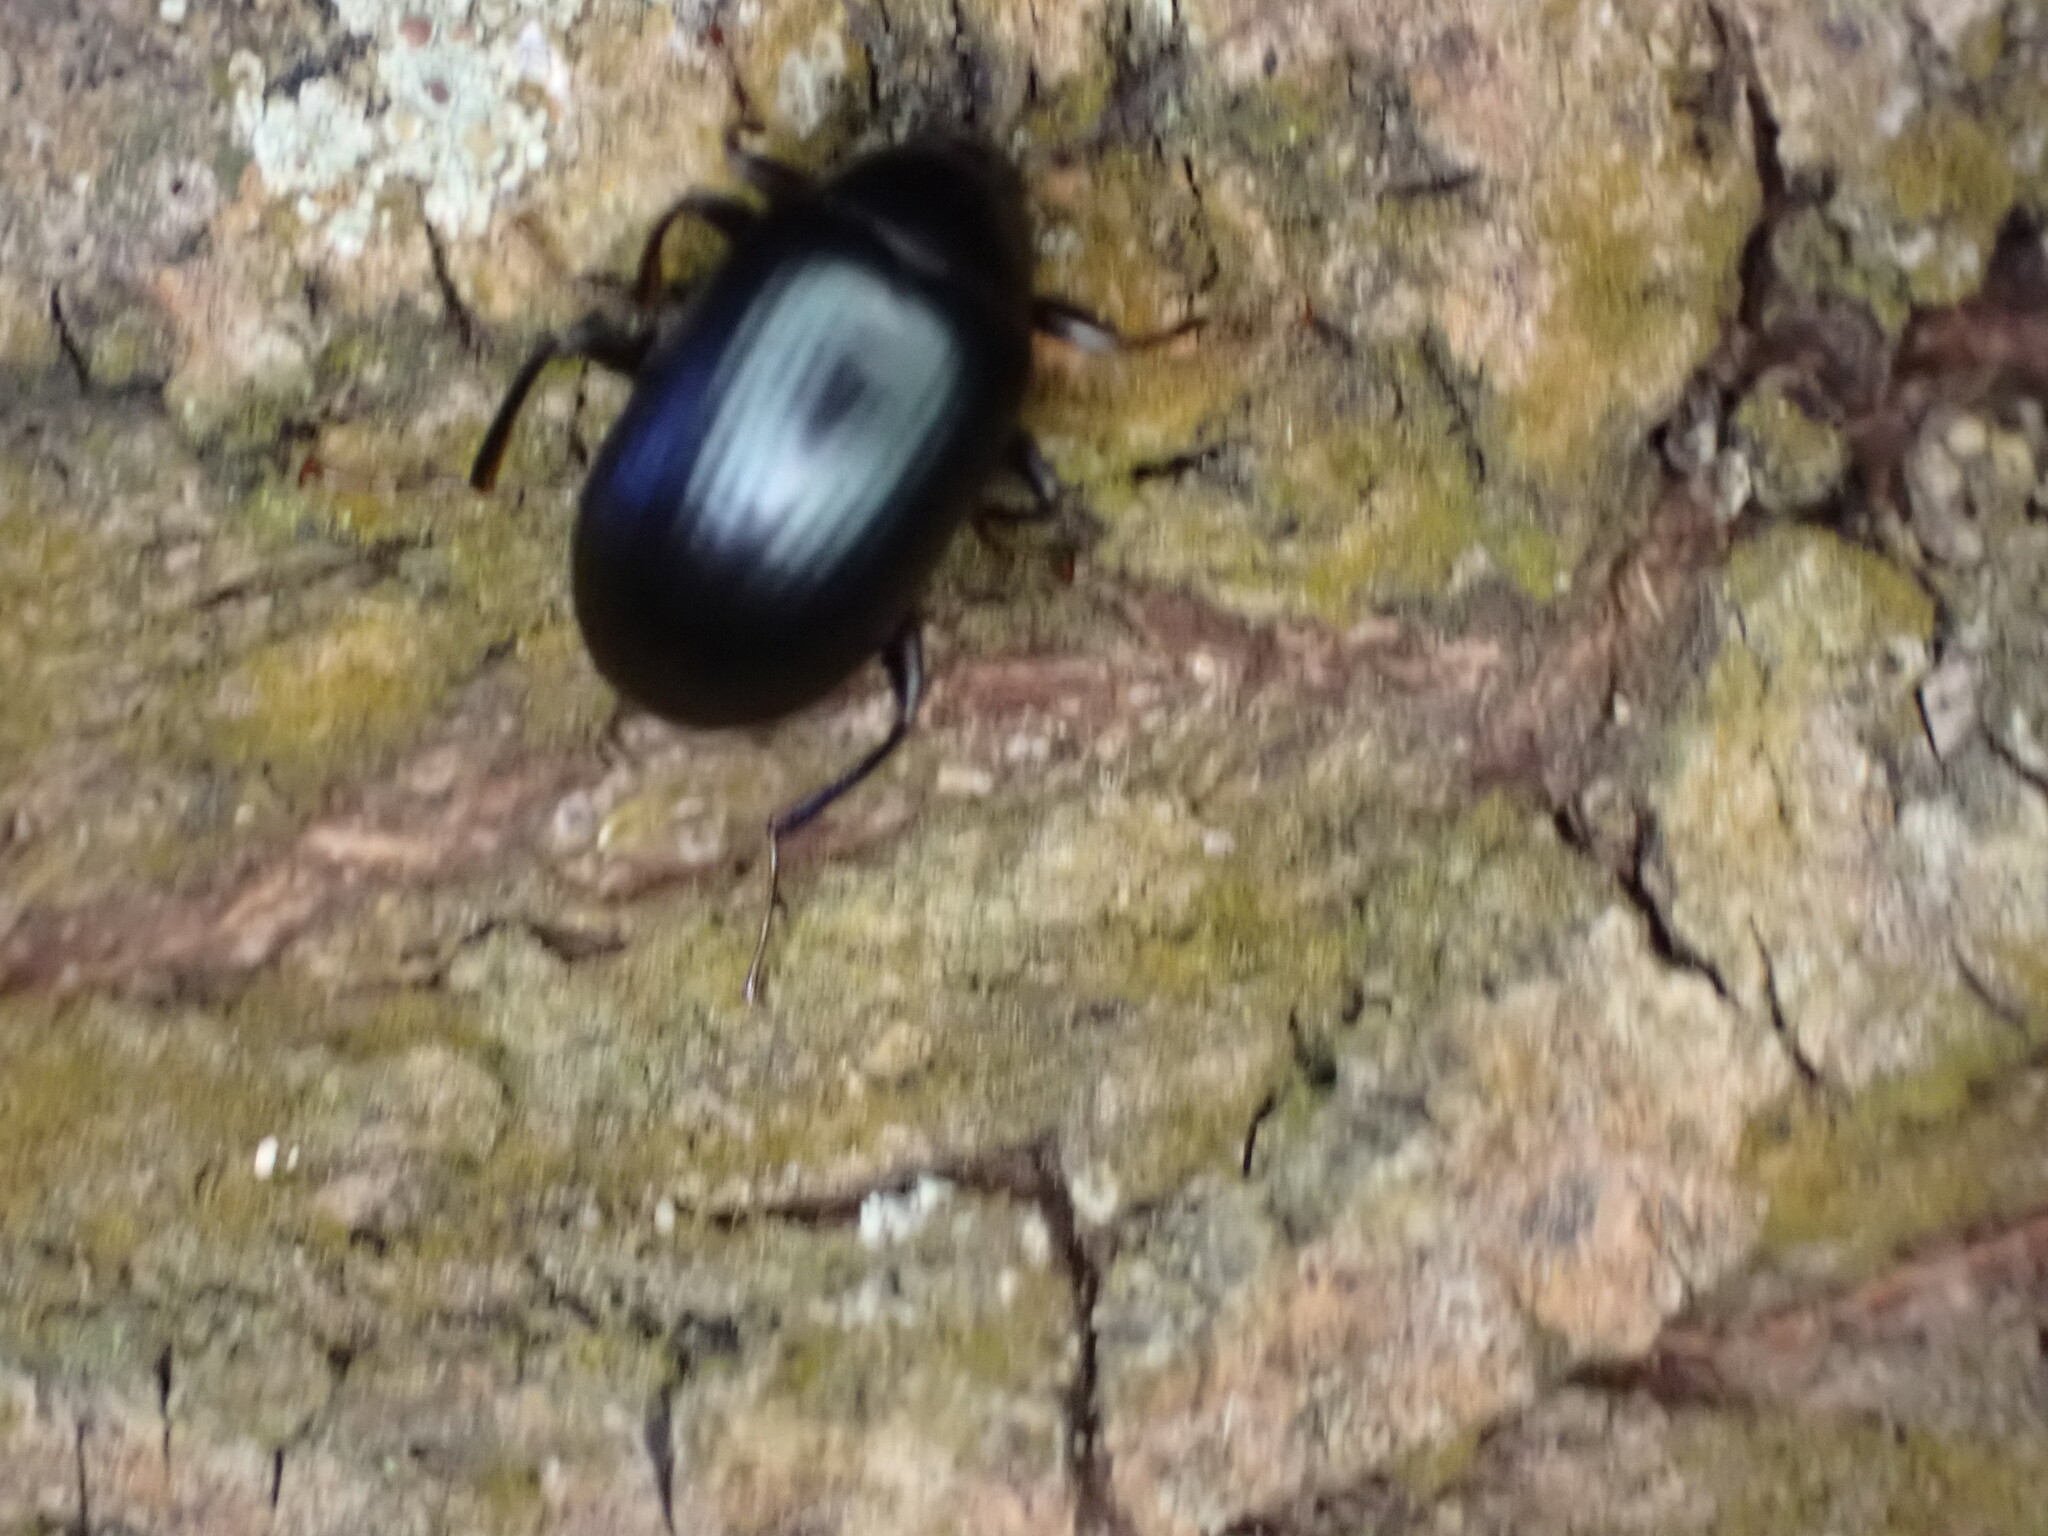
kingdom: Animalia
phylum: Arthropoda
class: Insecta
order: Coleoptera
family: Tenebrionidae
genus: Amarygmus
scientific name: Amarygmus
